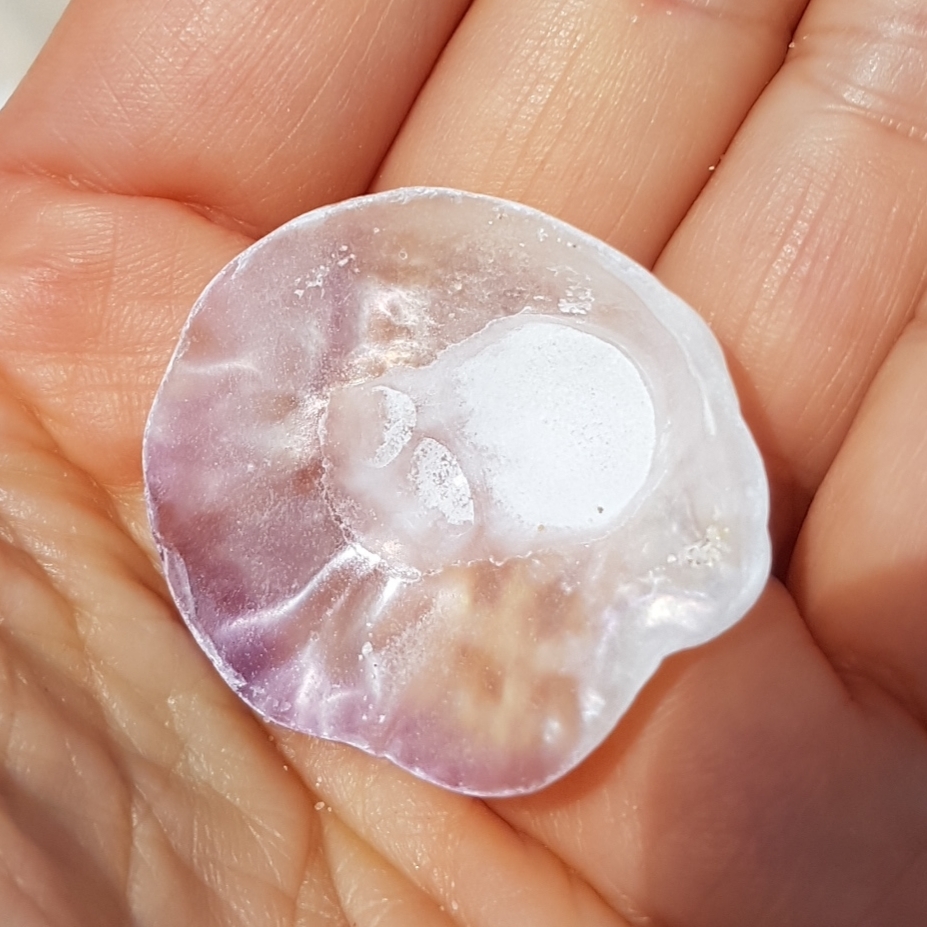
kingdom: Animalia
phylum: Mollusca
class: Bivalvia
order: Pectinida
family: Anomiidae
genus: Anomia
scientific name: Anomia ephippium
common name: Saddle oyster
